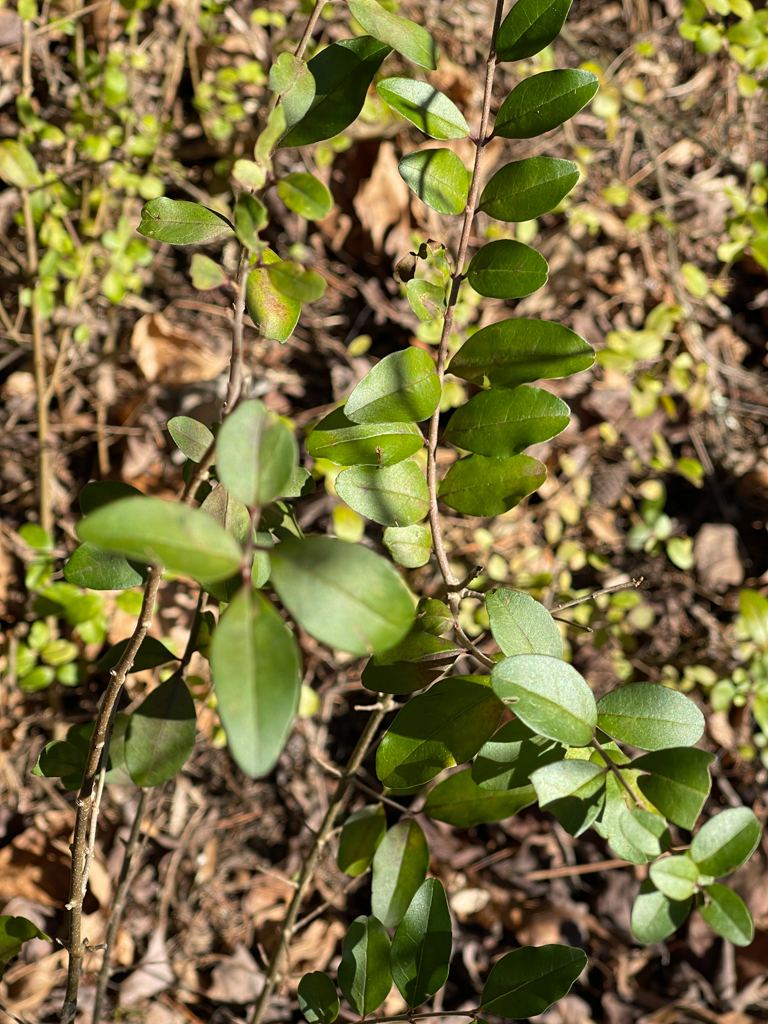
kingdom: Plantae
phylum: Tracheophyta
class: Magnoliopsida
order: Lamiales
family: Oleaceae
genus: Ligustrum
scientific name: Ligustrum sinense
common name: Chinese privet
